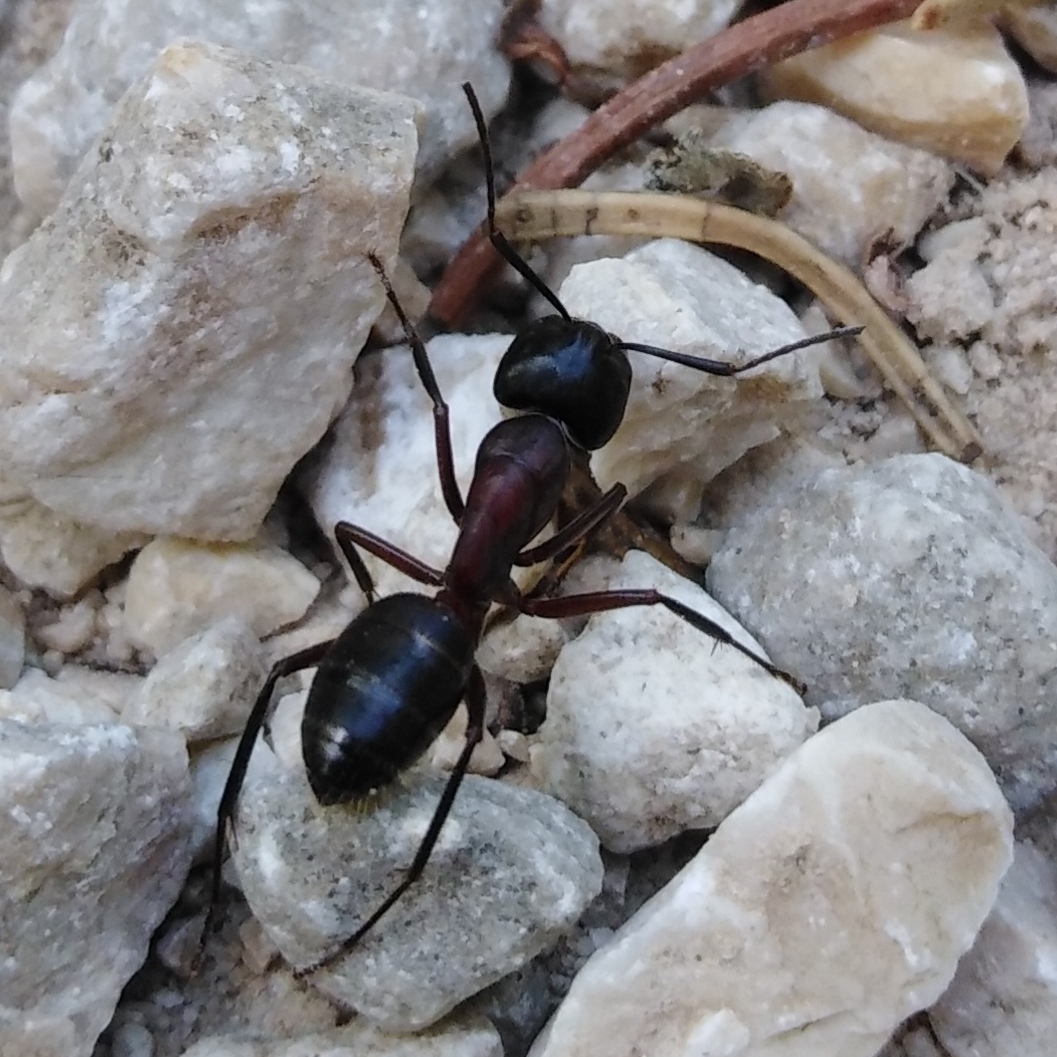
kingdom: Animalia
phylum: Arthropoda
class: Insecta
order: Hymenoptera
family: Formicidae
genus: Camponotus
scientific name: Camponotus herculeanus
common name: Hercules ant
